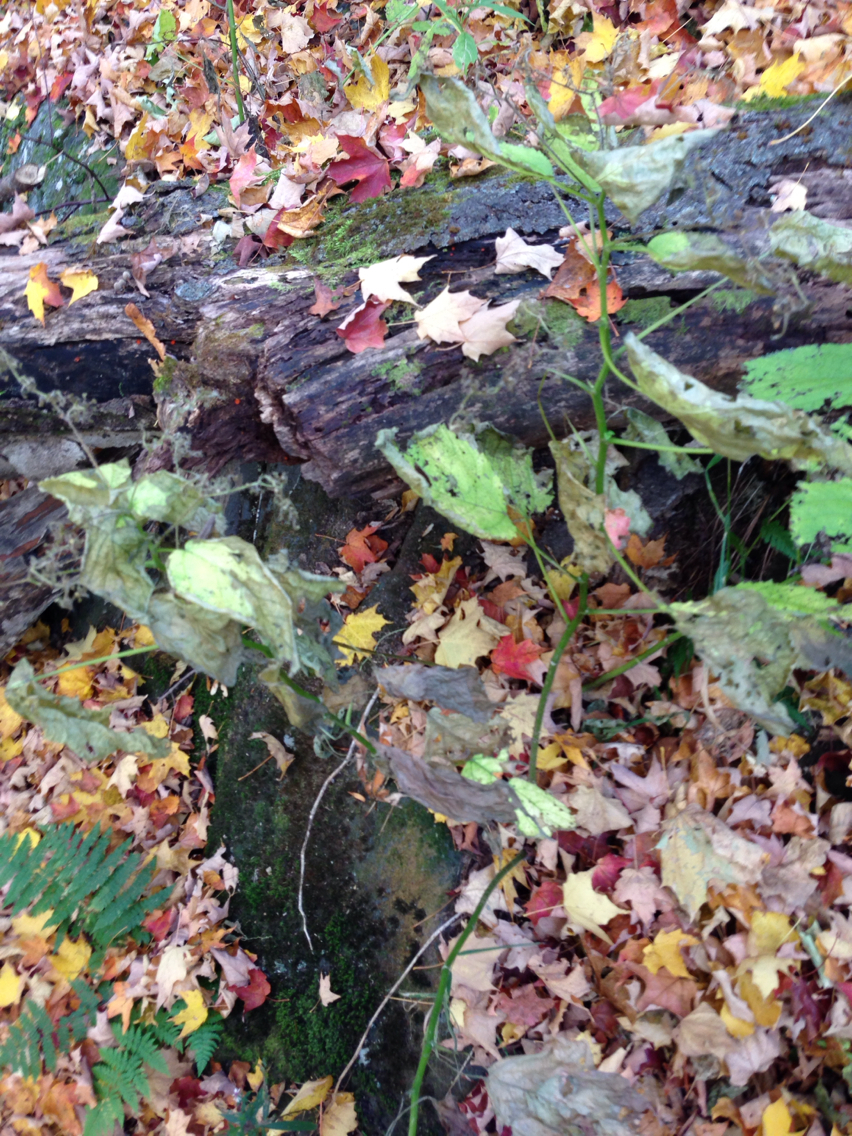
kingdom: Plantae
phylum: Tracheophyta
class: Magnoliopsida
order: Rosales
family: Urticaceae
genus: Laportea
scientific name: Laportea canadensis
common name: Canada nettle
